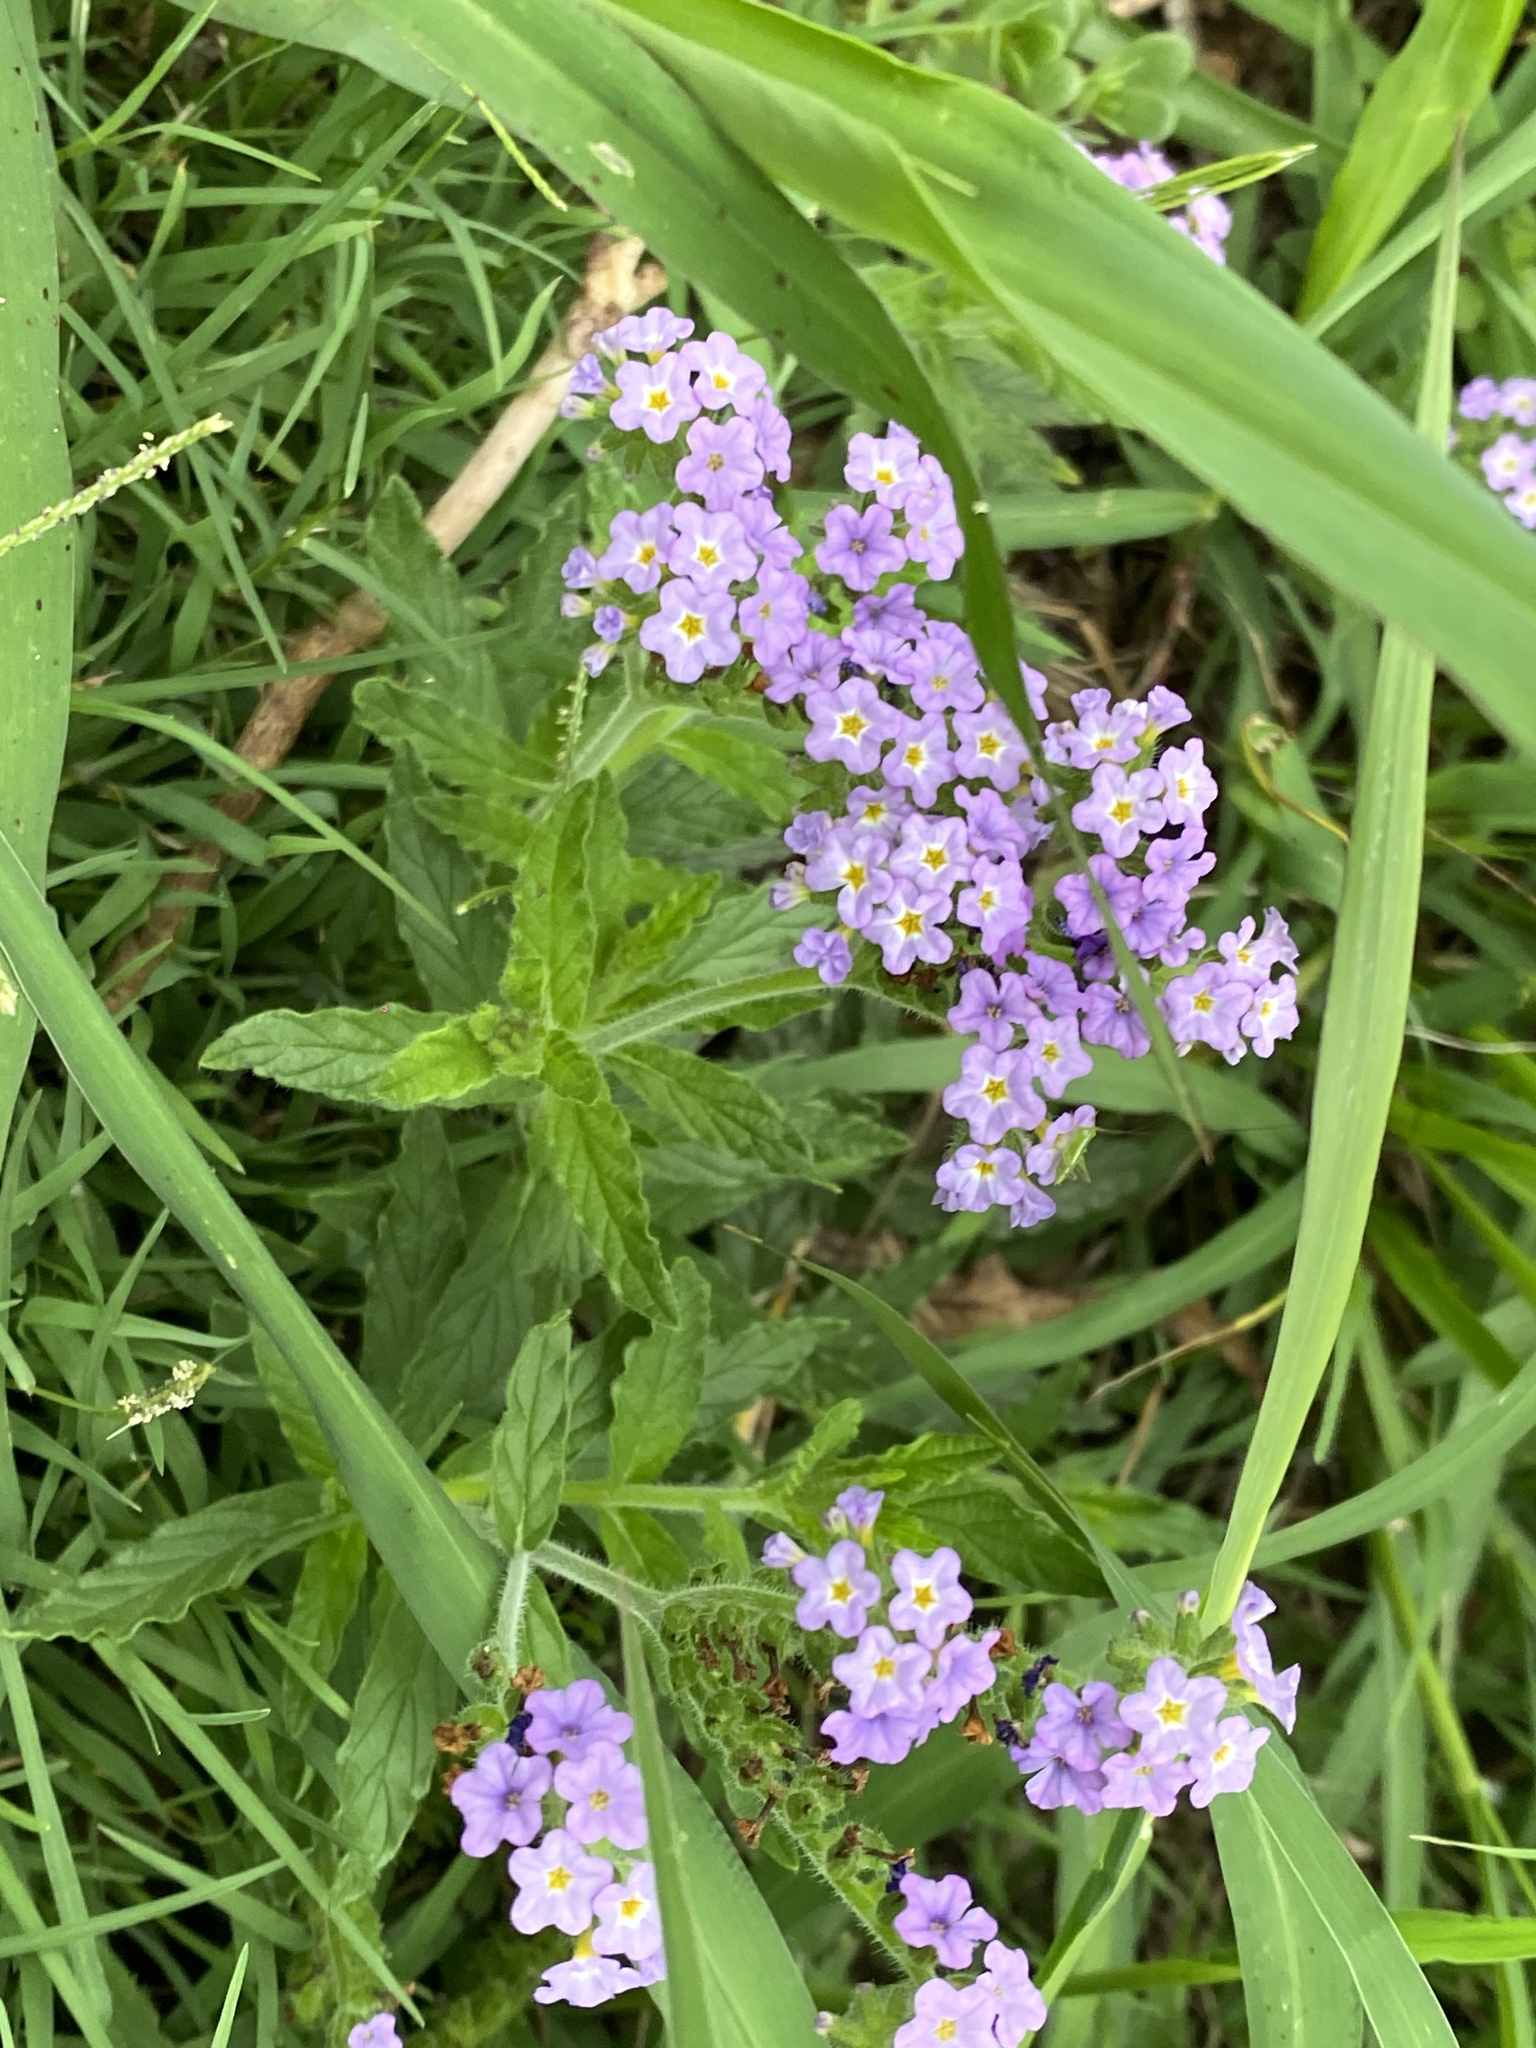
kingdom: Plantae
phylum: Tracheophyta
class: Magnoliopsida
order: Boraginales
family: Heliotropiaceae
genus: Heliotropium
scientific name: Heliotropium amplexicaule
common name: Clasping heliotrope
